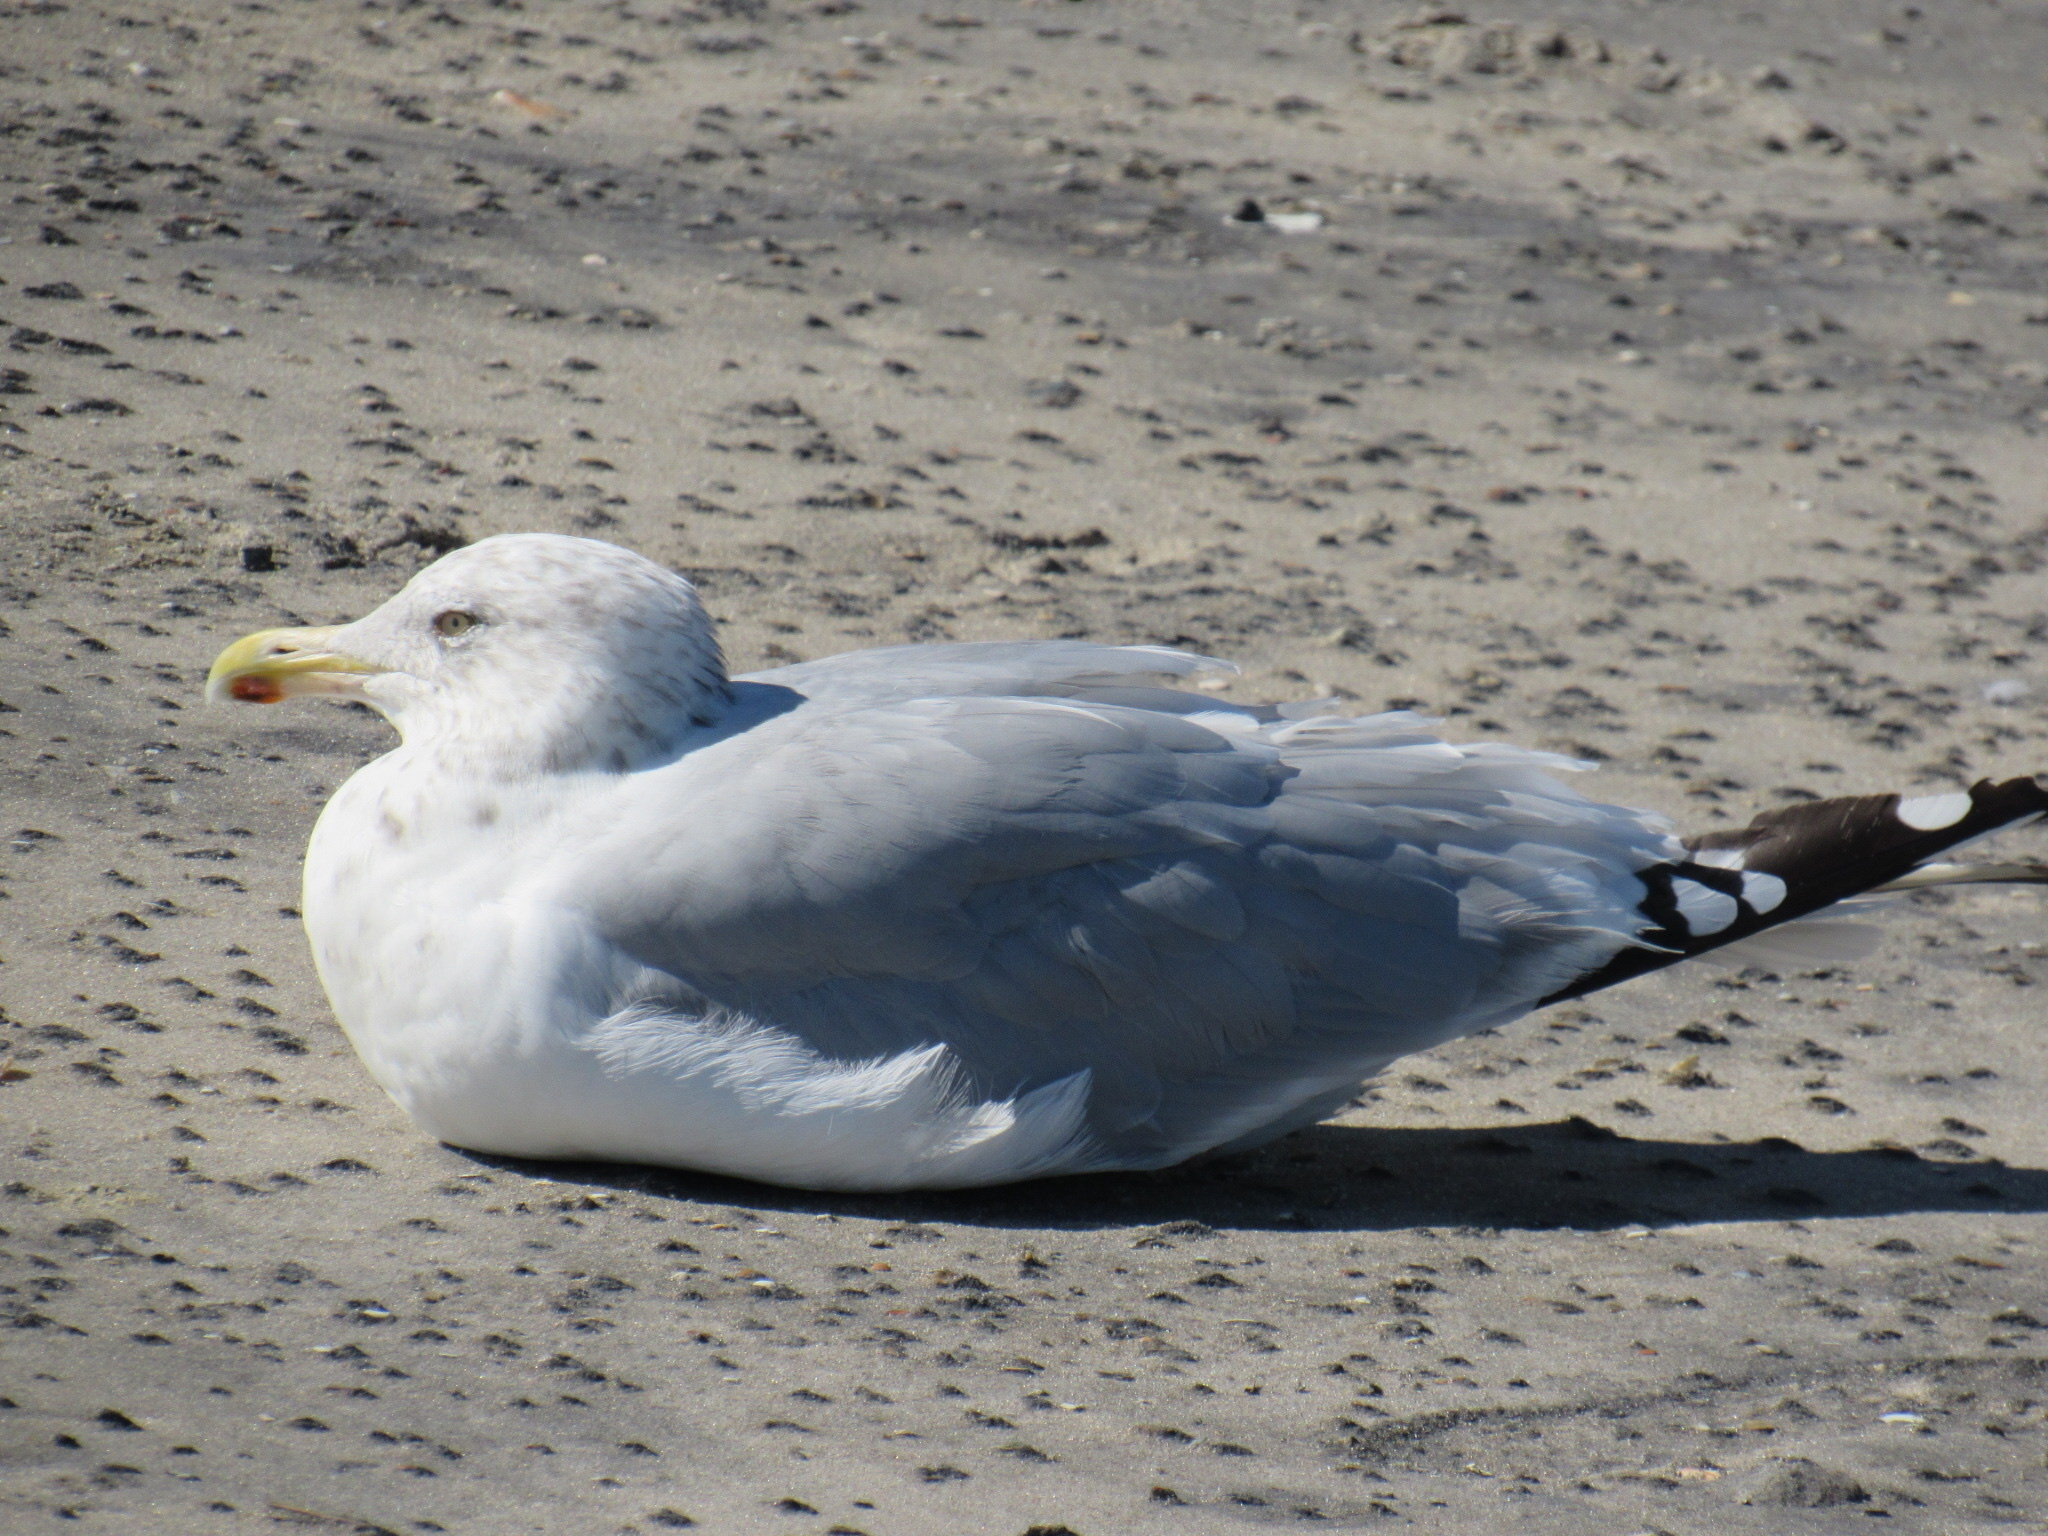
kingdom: Animalia
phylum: Chordata
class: Aves
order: Charadriiformes
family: Laridae
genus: Larus
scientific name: Larus argentatus
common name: Herring gull
